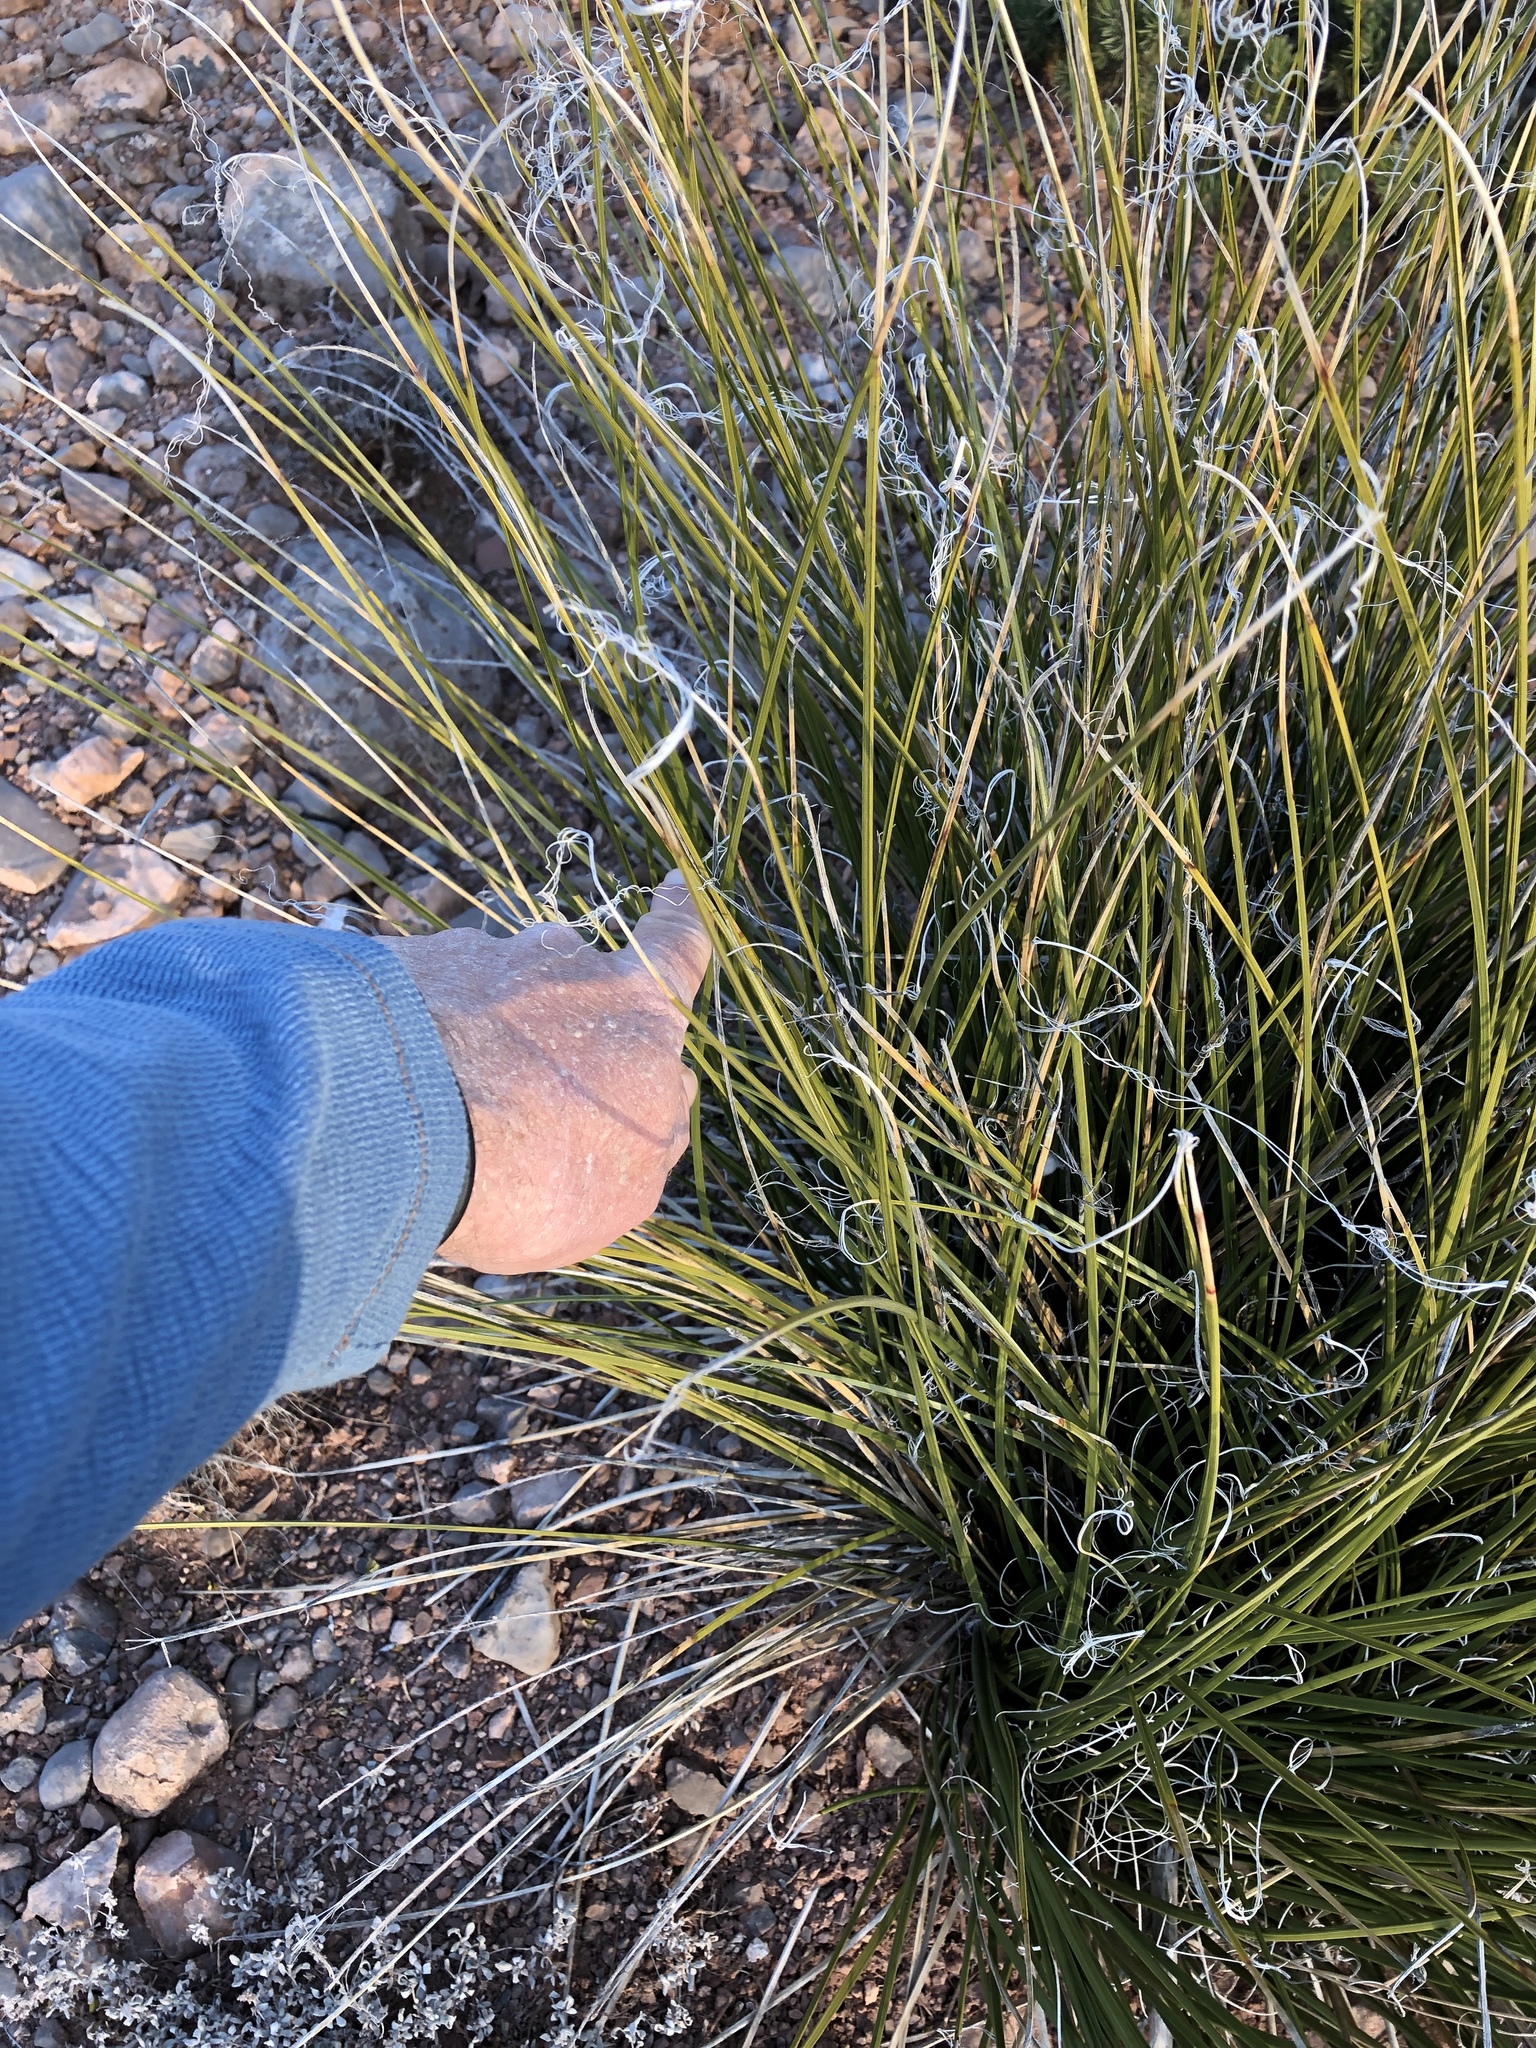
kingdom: Plantae
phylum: Tracheophyta
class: Liliopsida
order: Asparagales
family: Asparagaceae
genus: Nolina
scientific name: Nolina texana
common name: Texas sacahuiste
